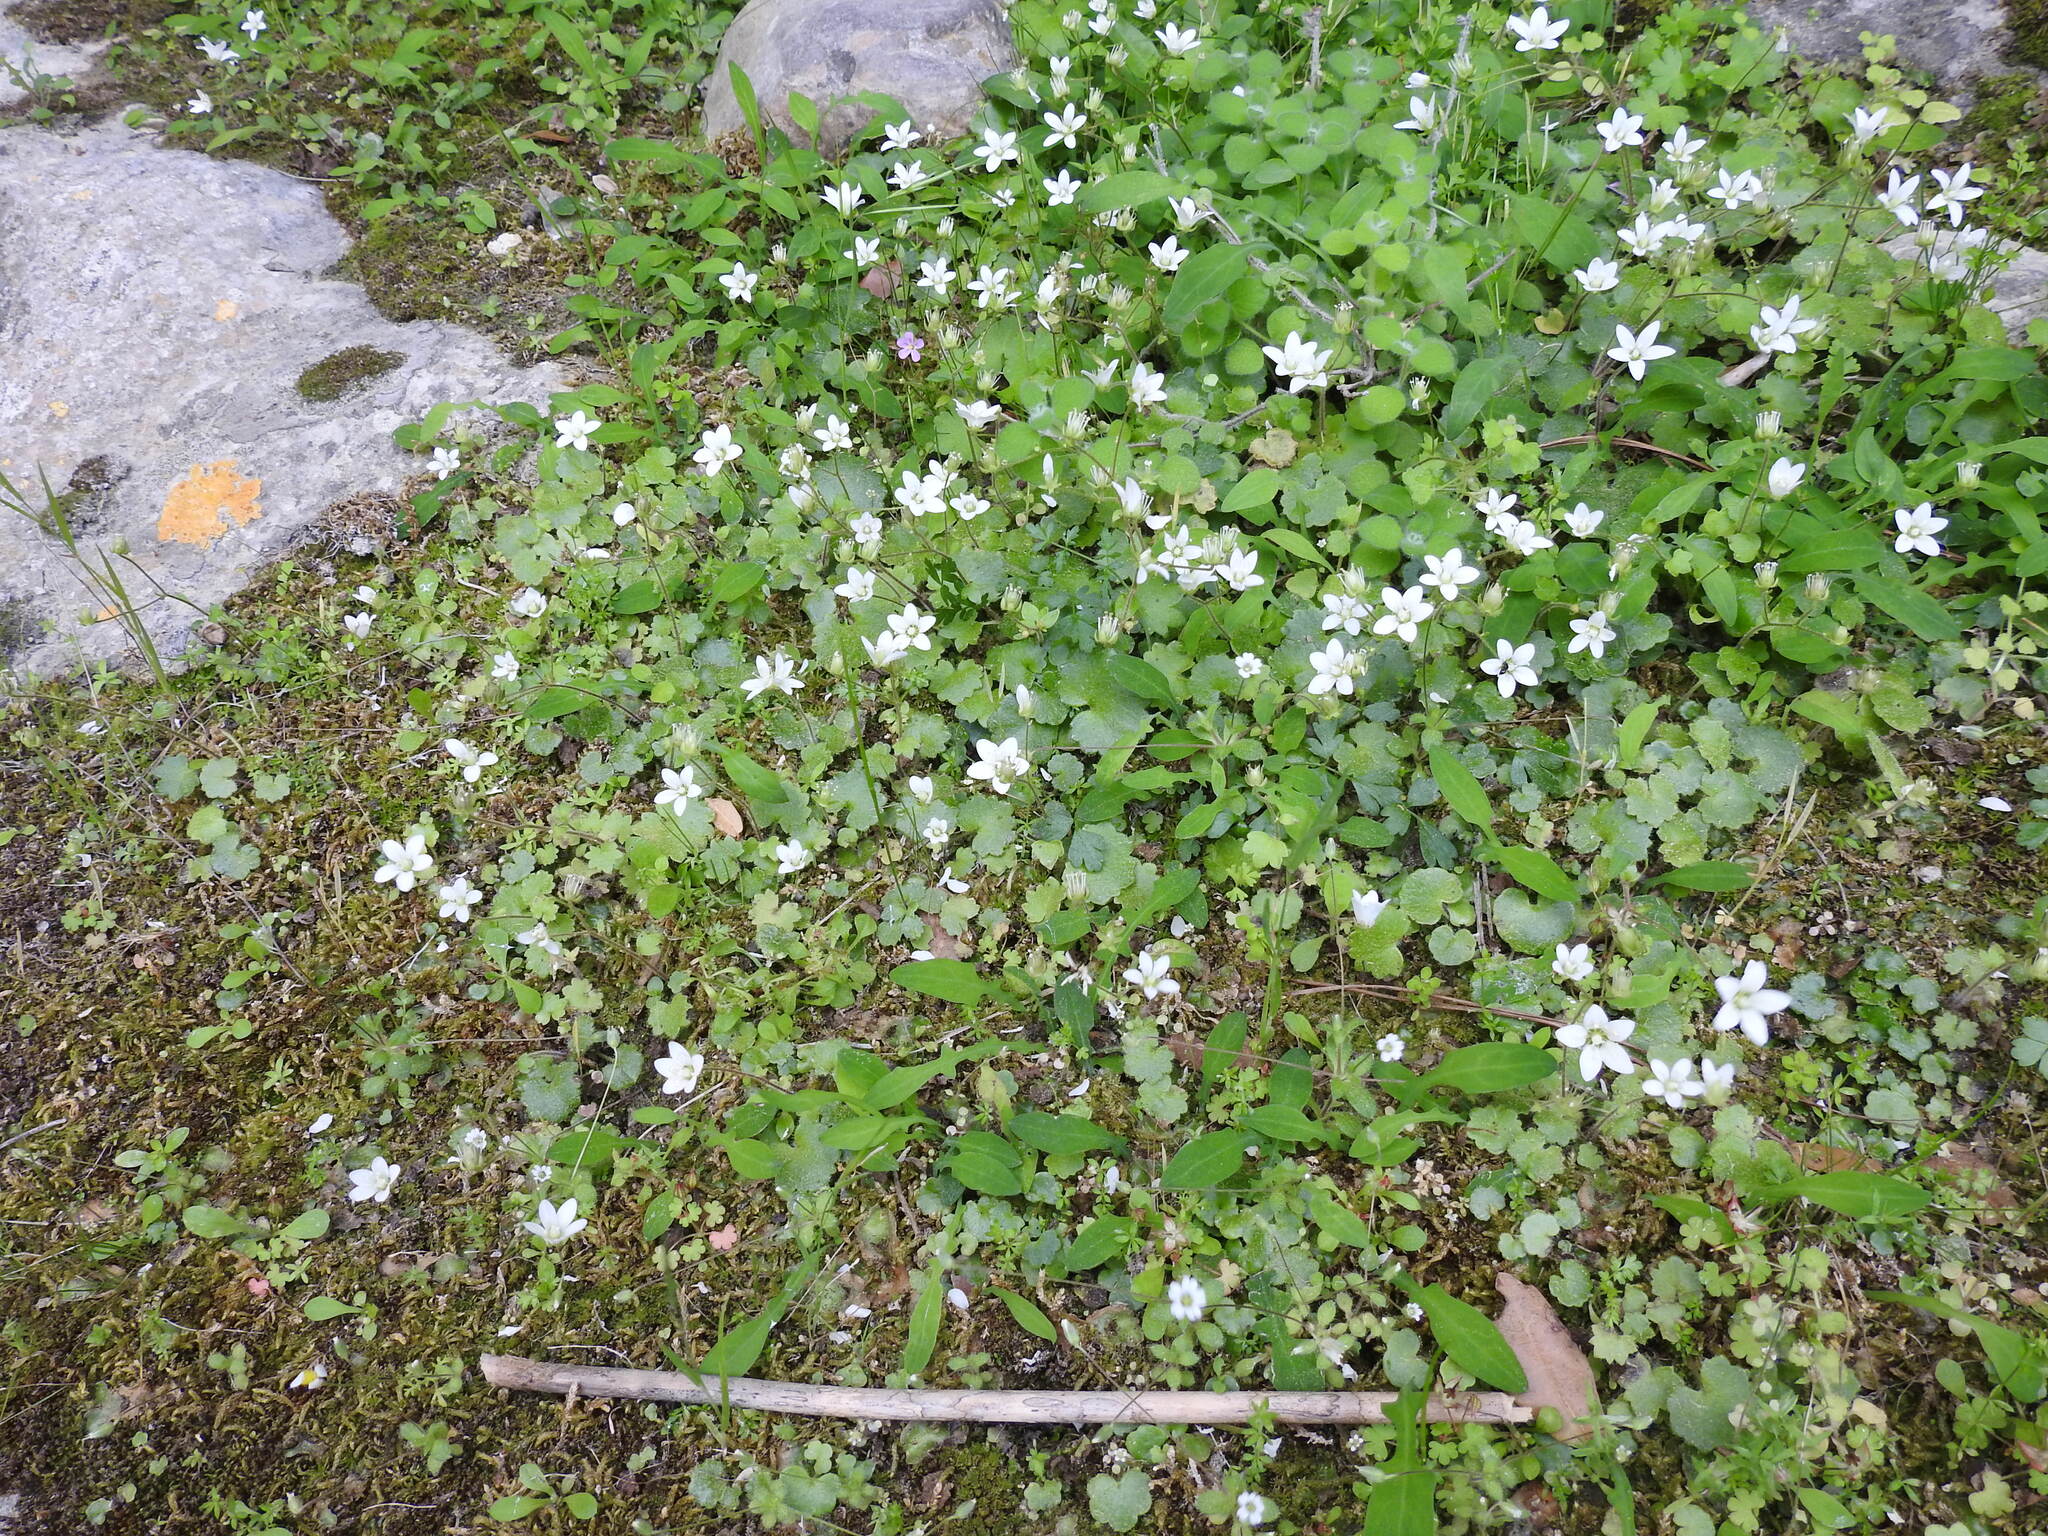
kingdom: Plantae
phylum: Tracheophyta
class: Magnoliopsida
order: Saxifragales
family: Saxifragaceae
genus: Saxifraga
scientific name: Saxifraga rotundifolia
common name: Round-leaved saxifrage
